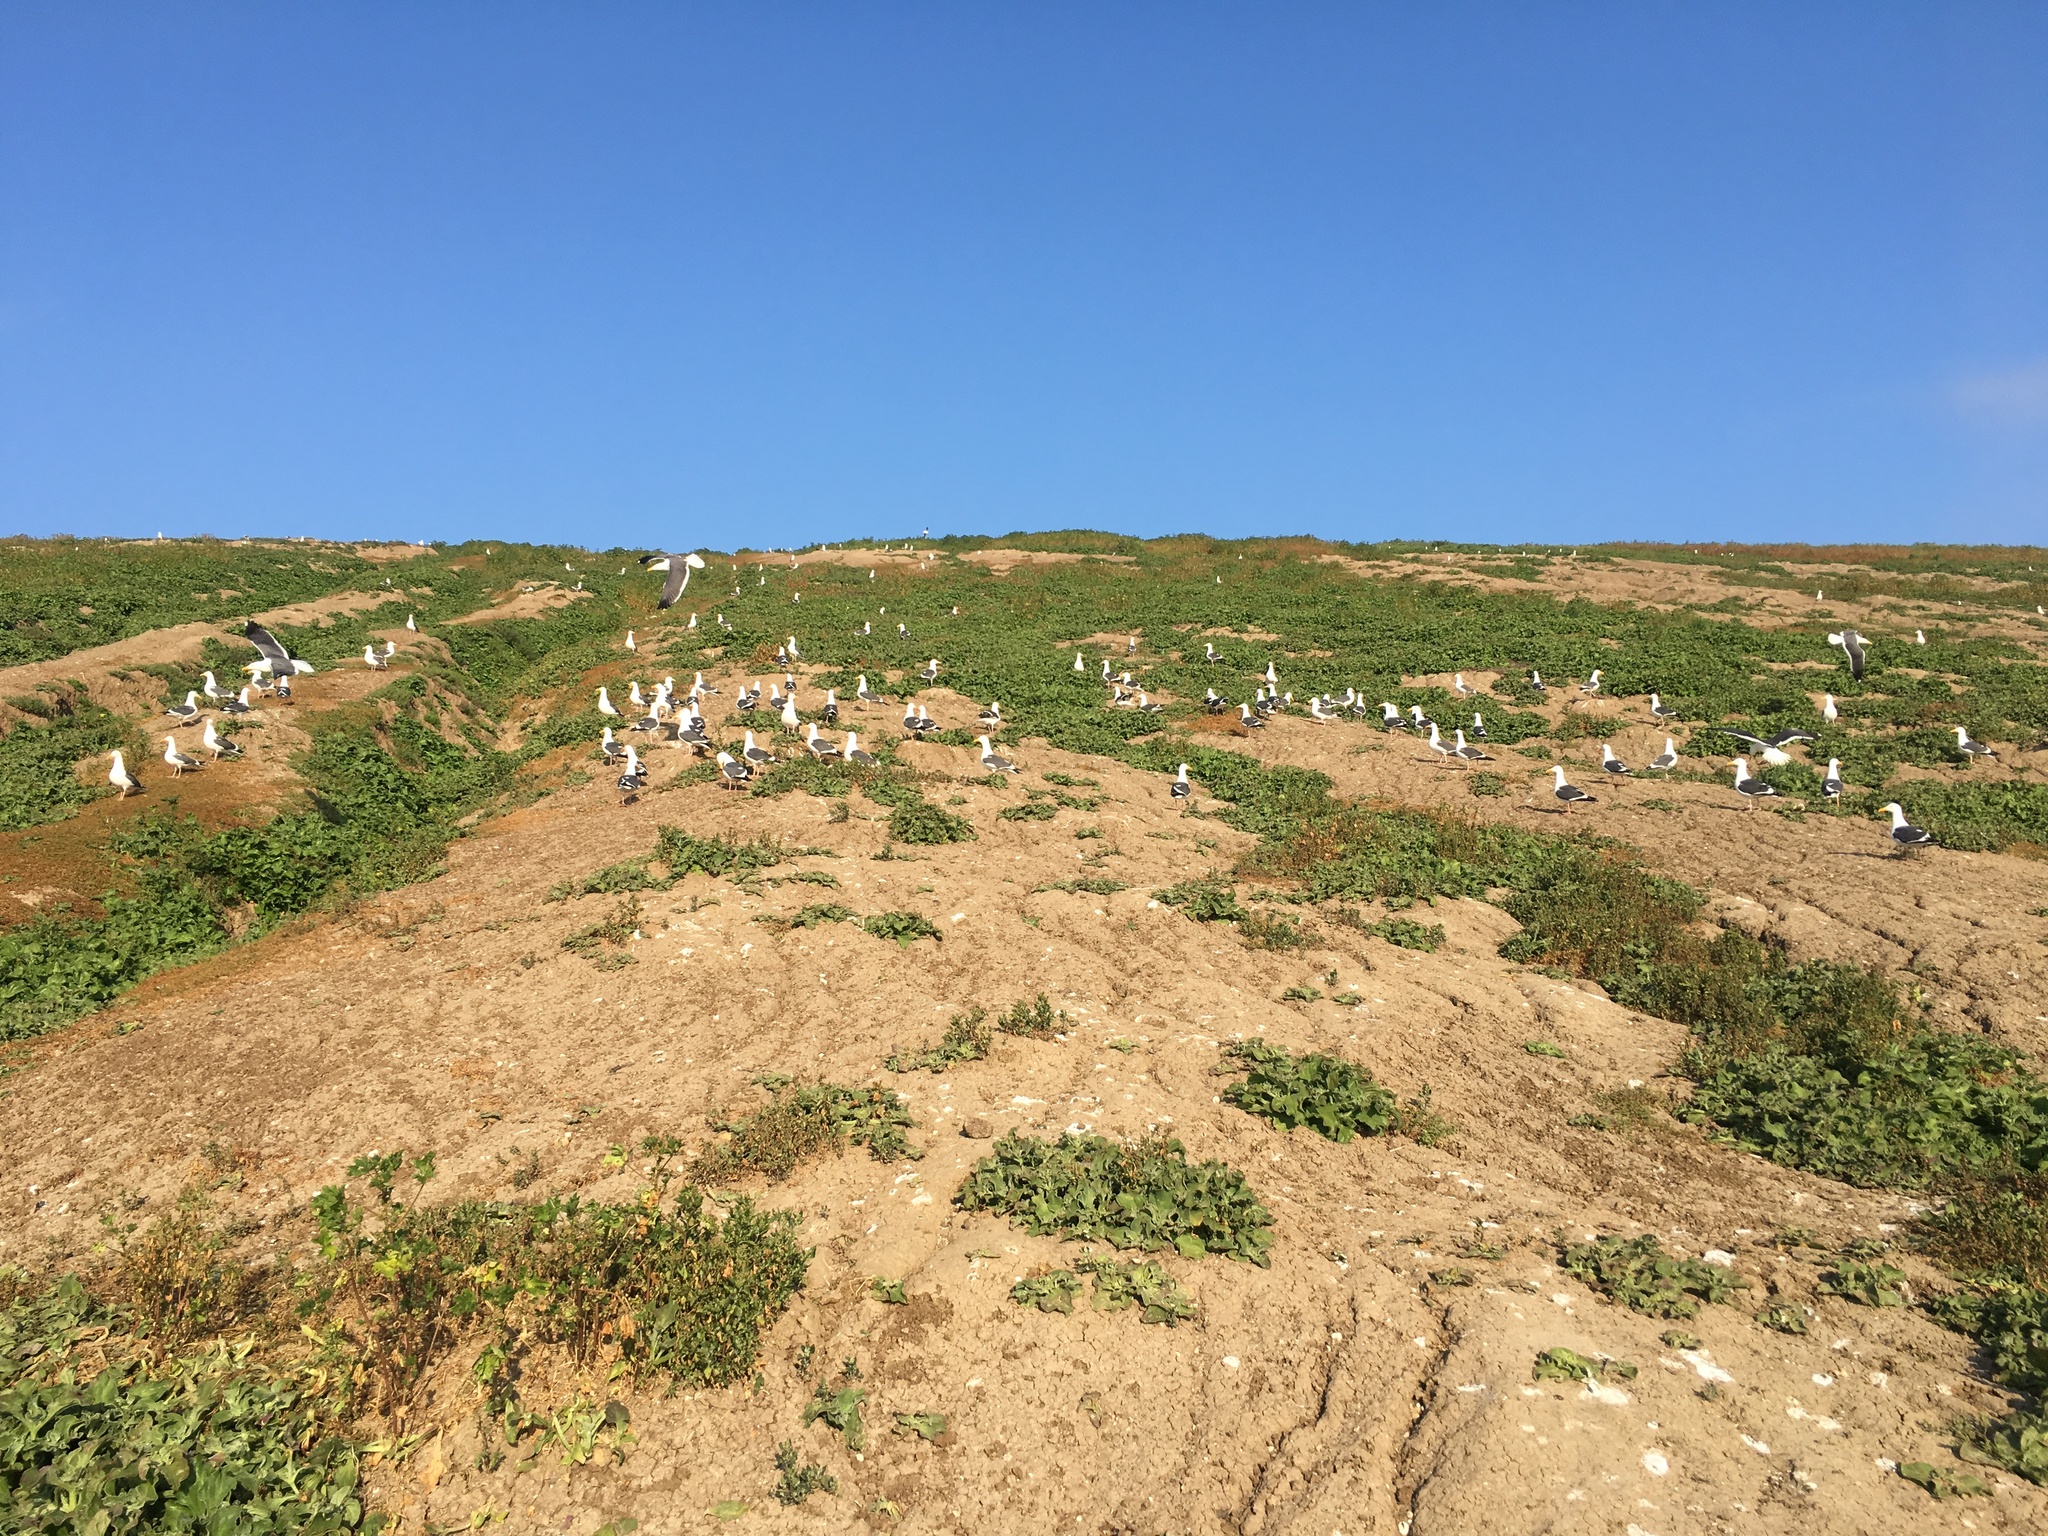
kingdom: Animalia
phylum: Chordata
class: Aves
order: Charadriiformes
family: Laridae
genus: Larus
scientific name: Larus occidentalis
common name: Western gull
